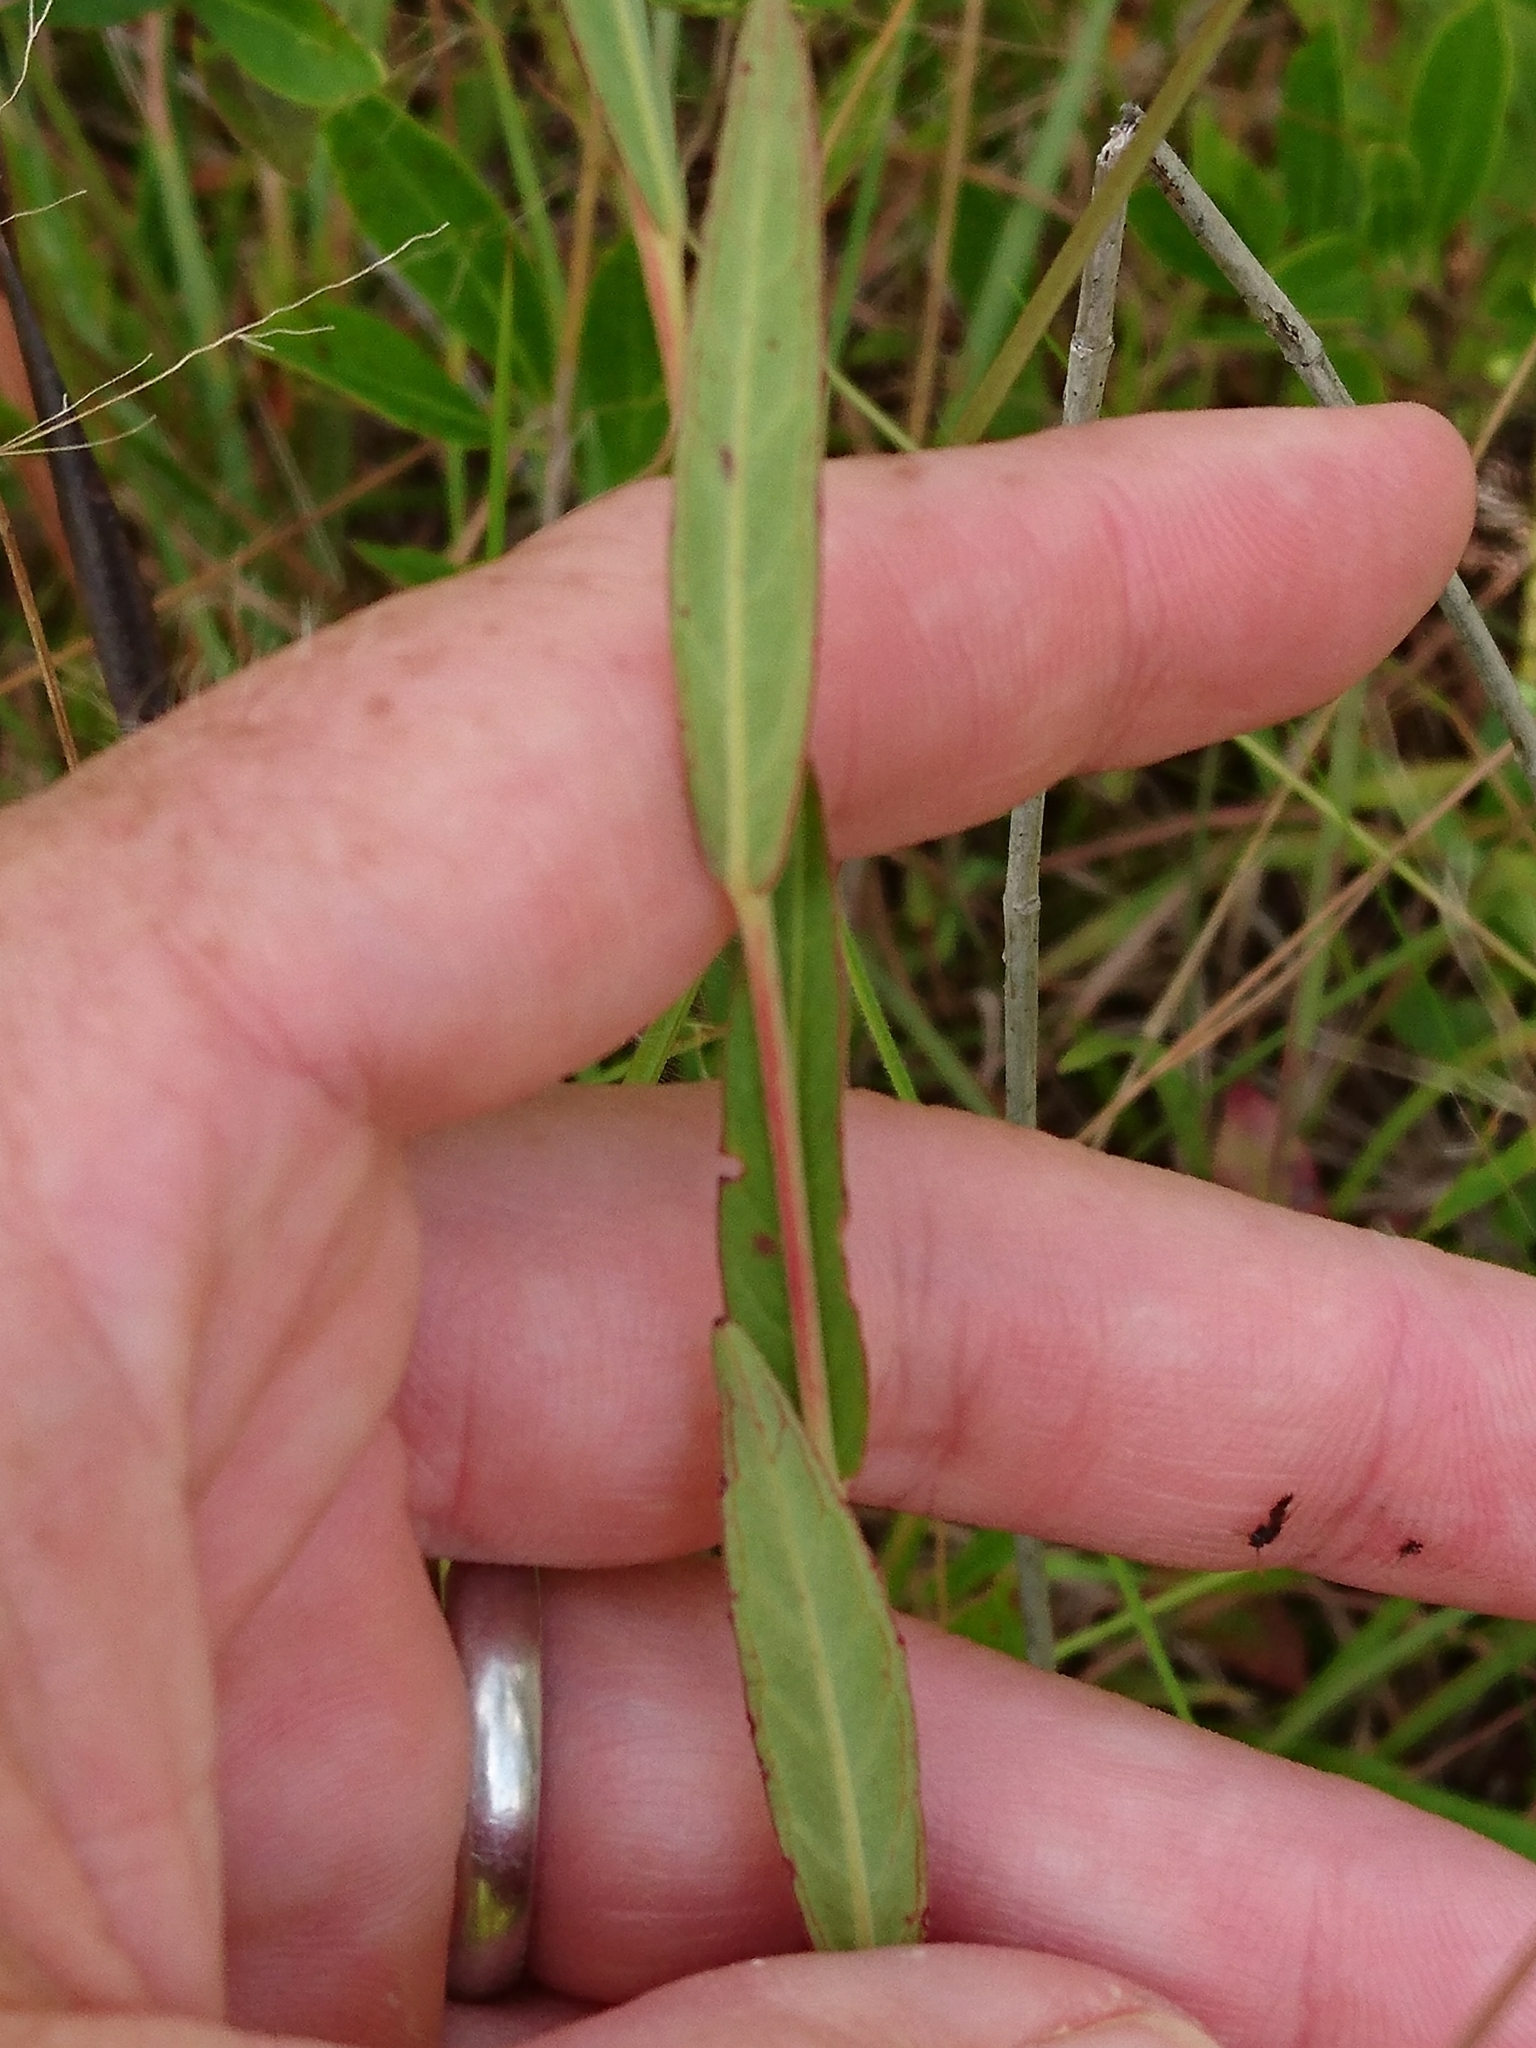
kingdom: Plantae
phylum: Tracheophyta
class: Magnoliopsida
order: Myrtales
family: Onagraceae
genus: Ludwigia
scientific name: Ludwigia virgata
